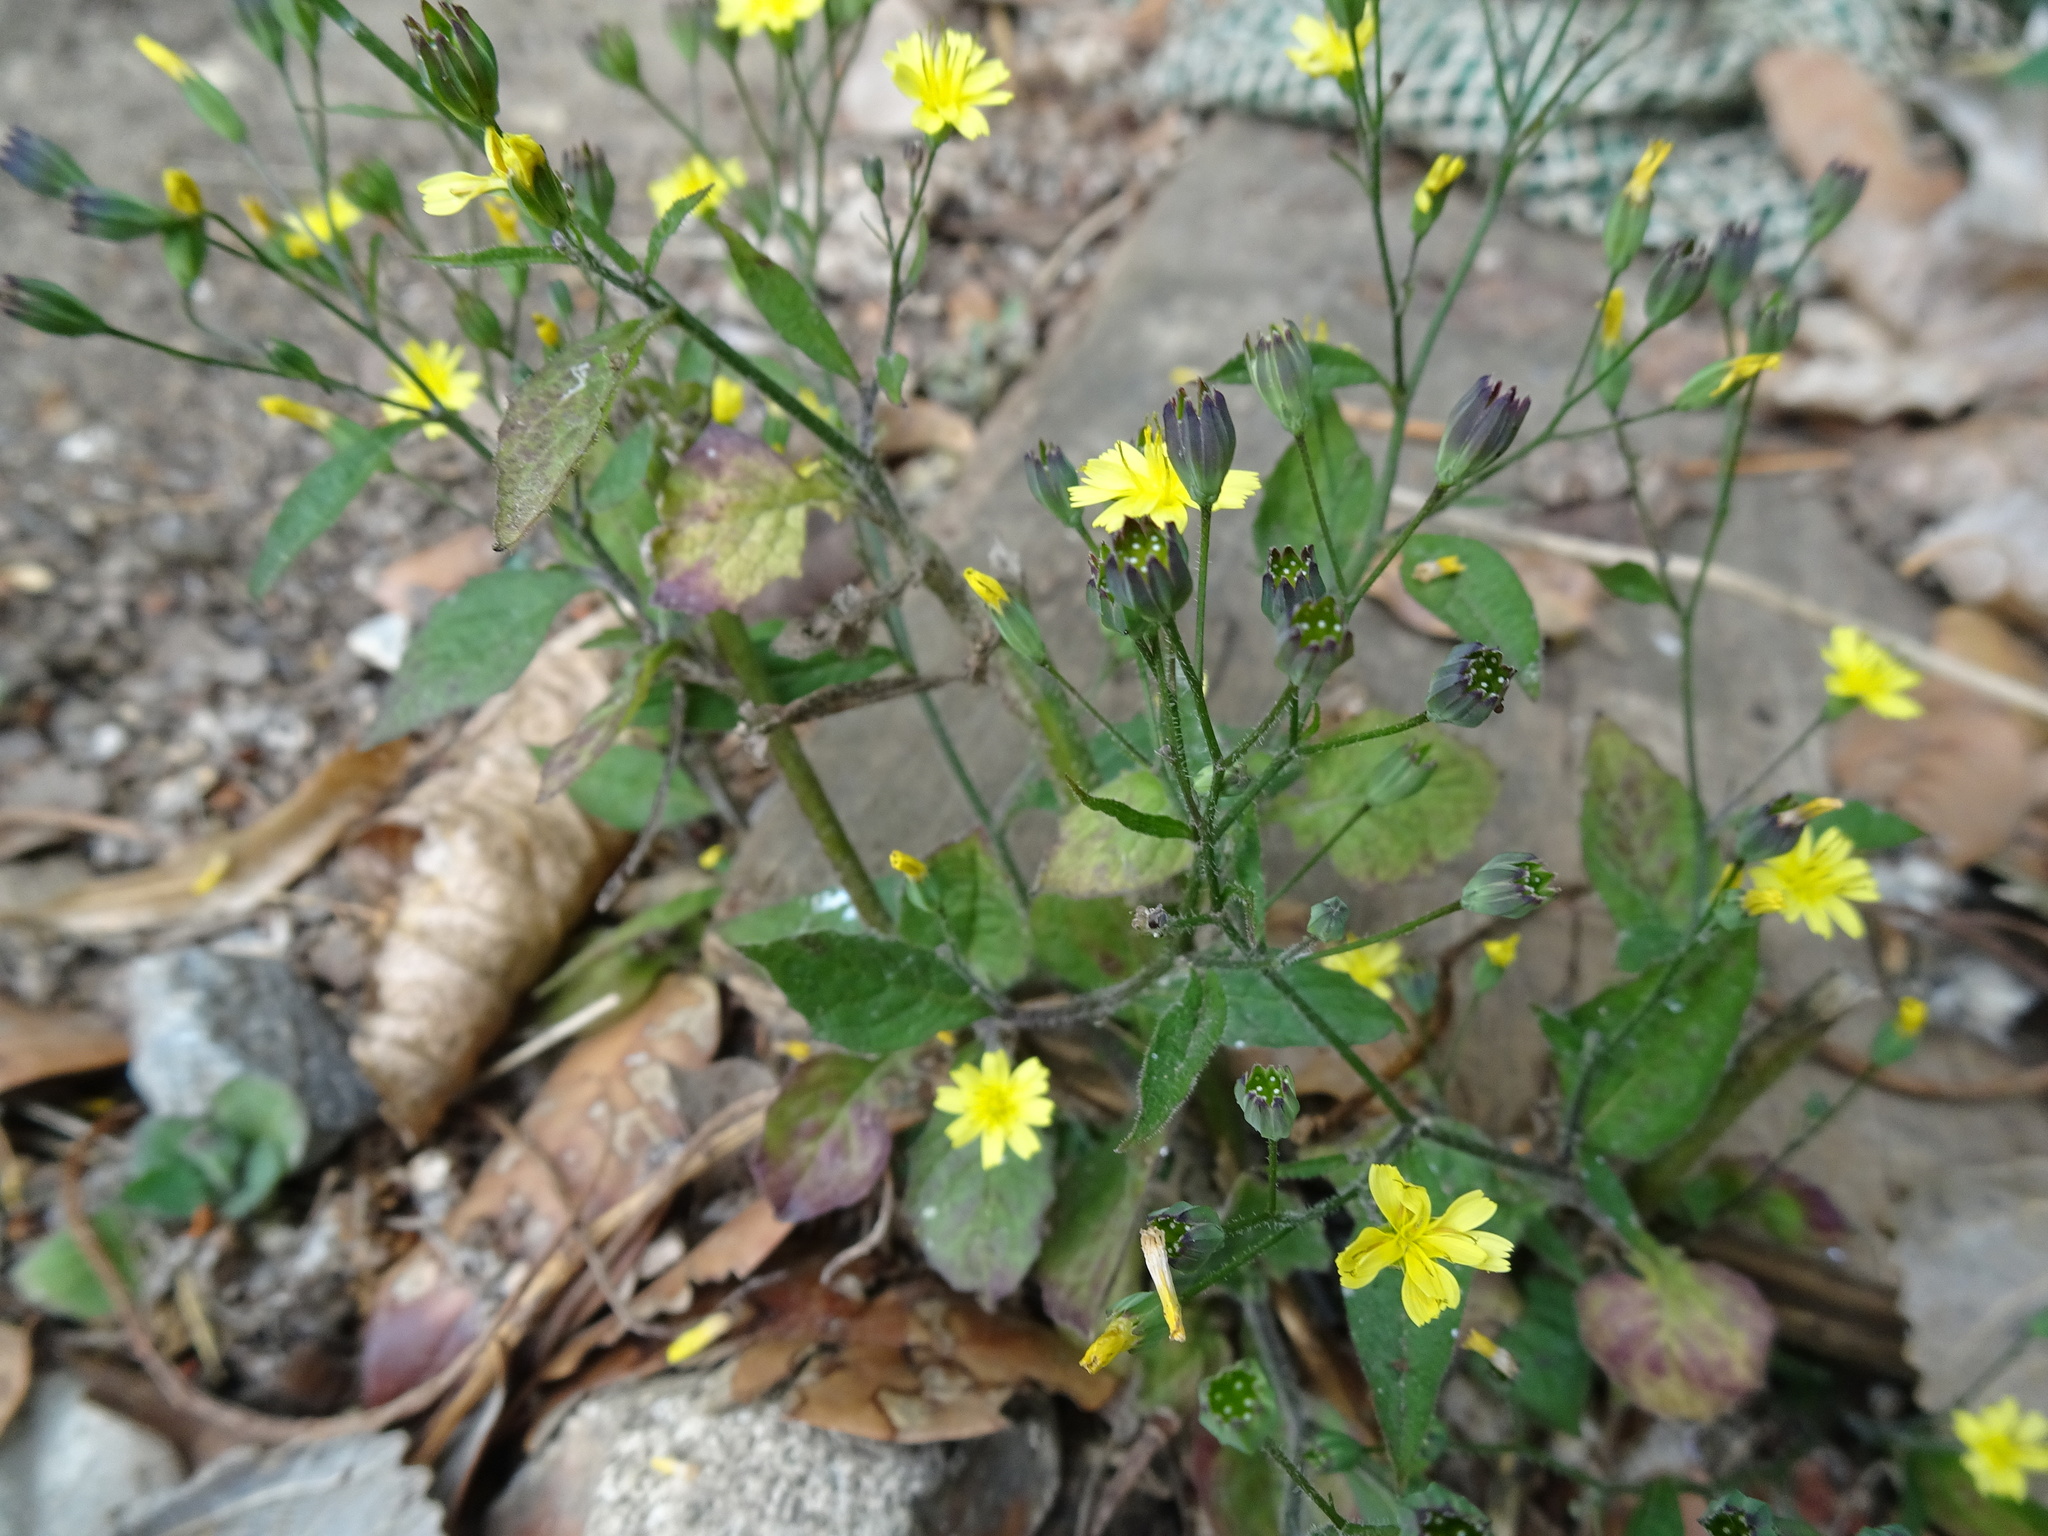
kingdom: Plantae
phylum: Tracheophyta
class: Magnoliopsida
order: Asterales
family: Asteraceae
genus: Lapsana
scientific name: Lapsana communis
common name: Nipplewort
